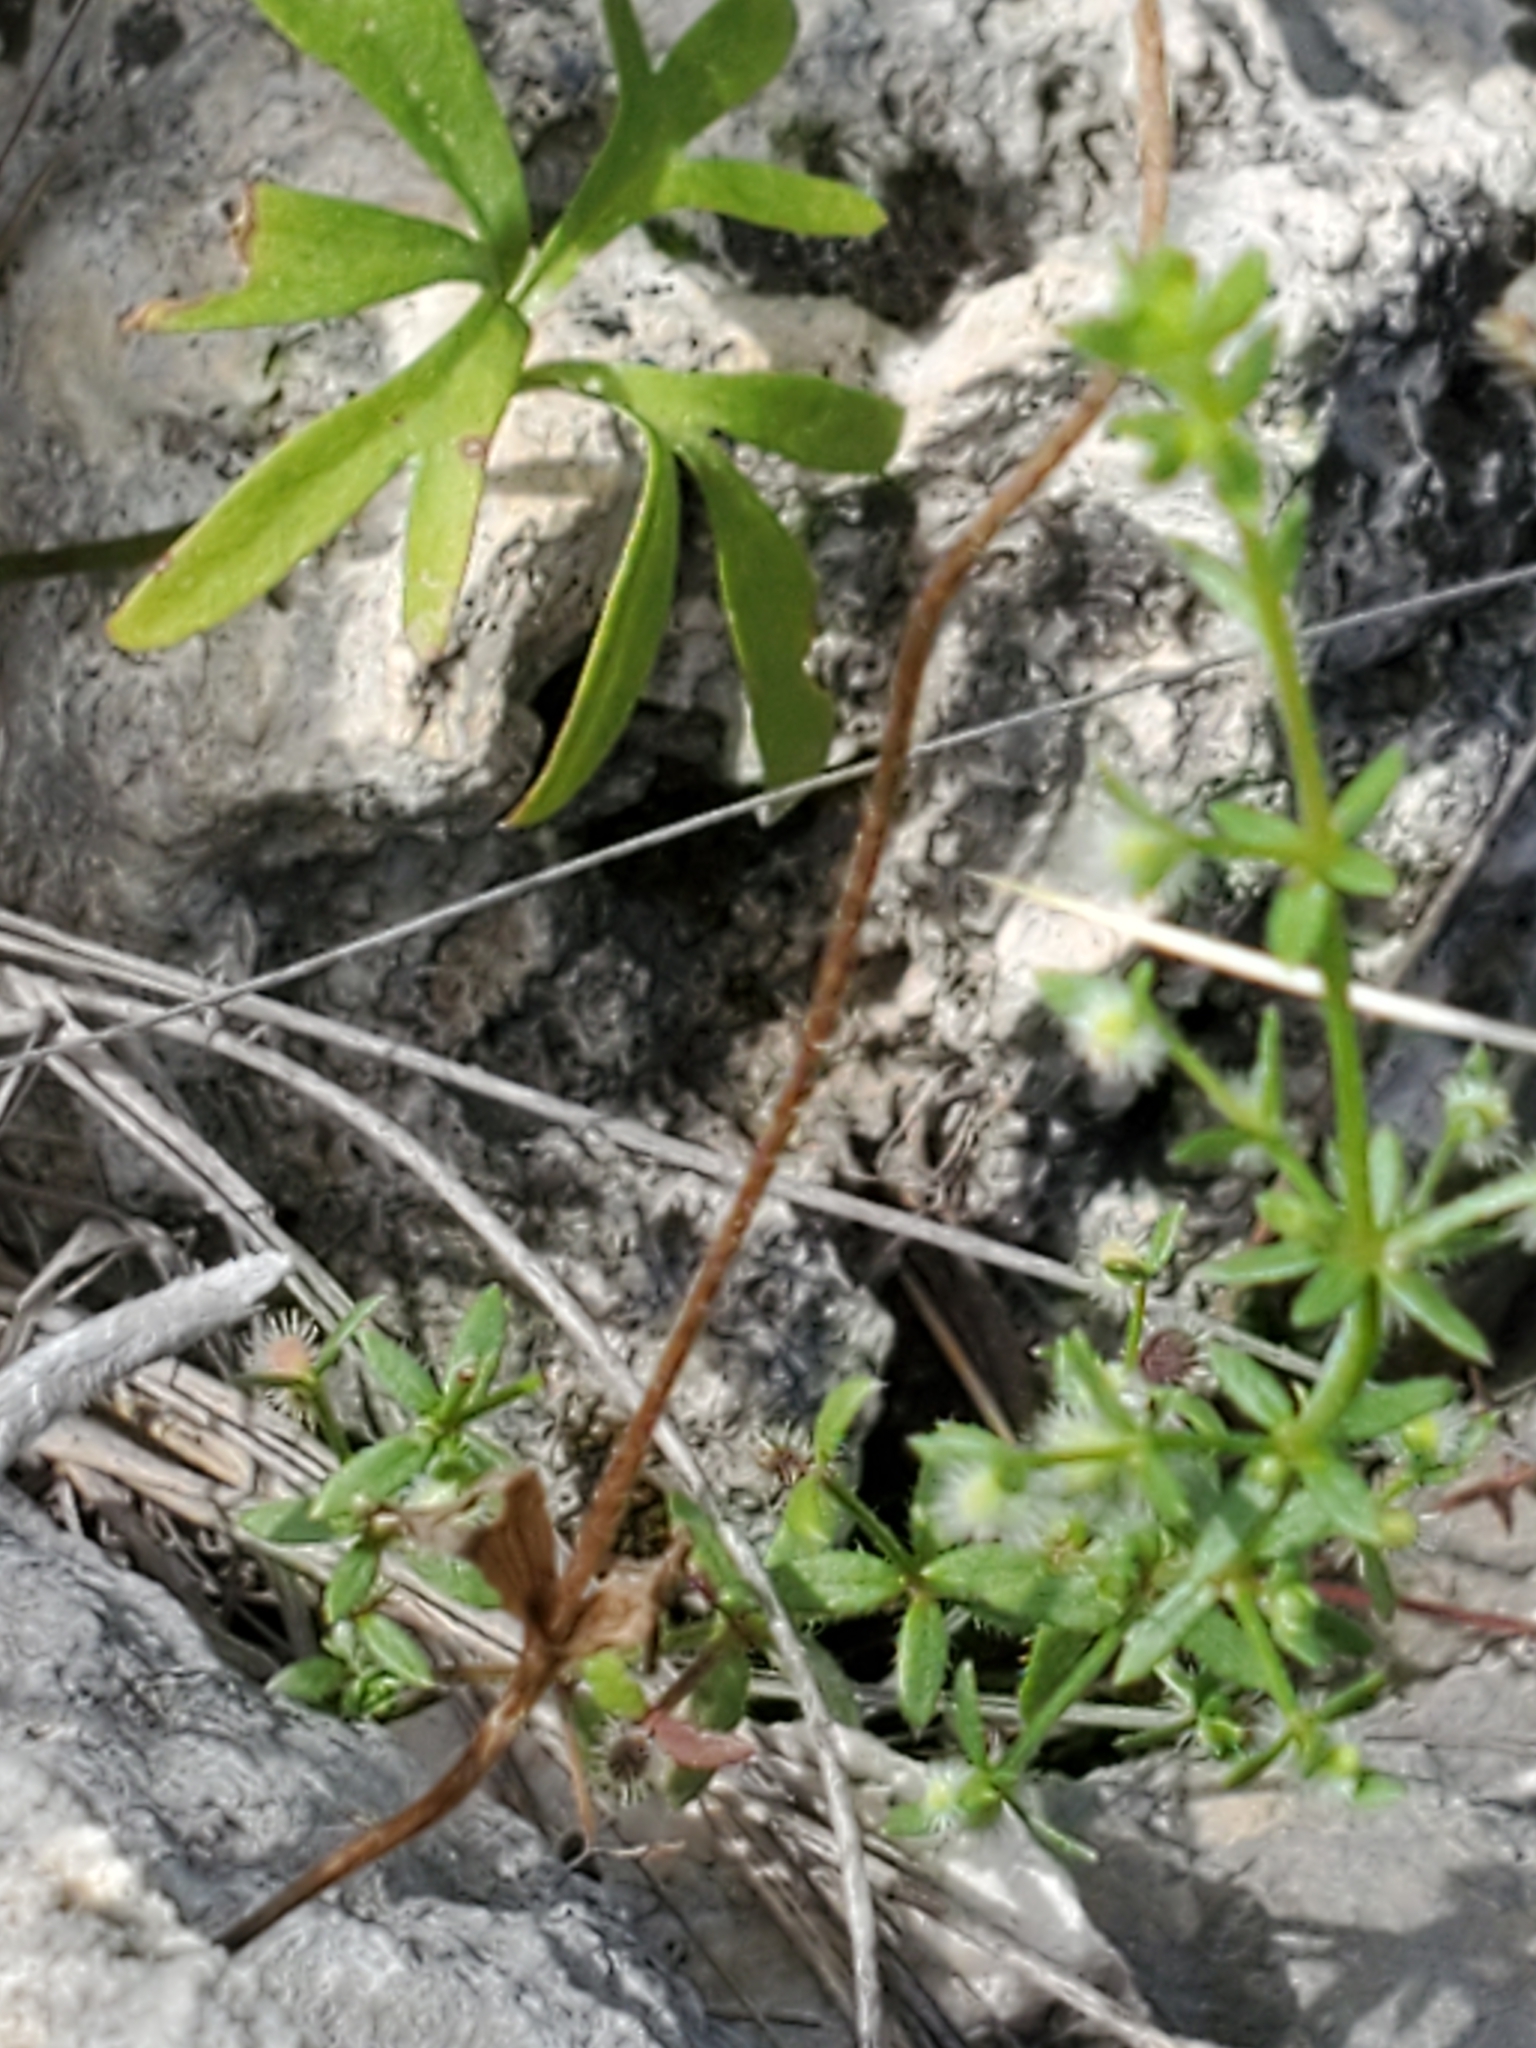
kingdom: Plantae
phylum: Tracheophyta
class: Magnoliopsida
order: Ranunculales
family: Ranunculaceae
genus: Anemone
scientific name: Anemone edwardsiana
